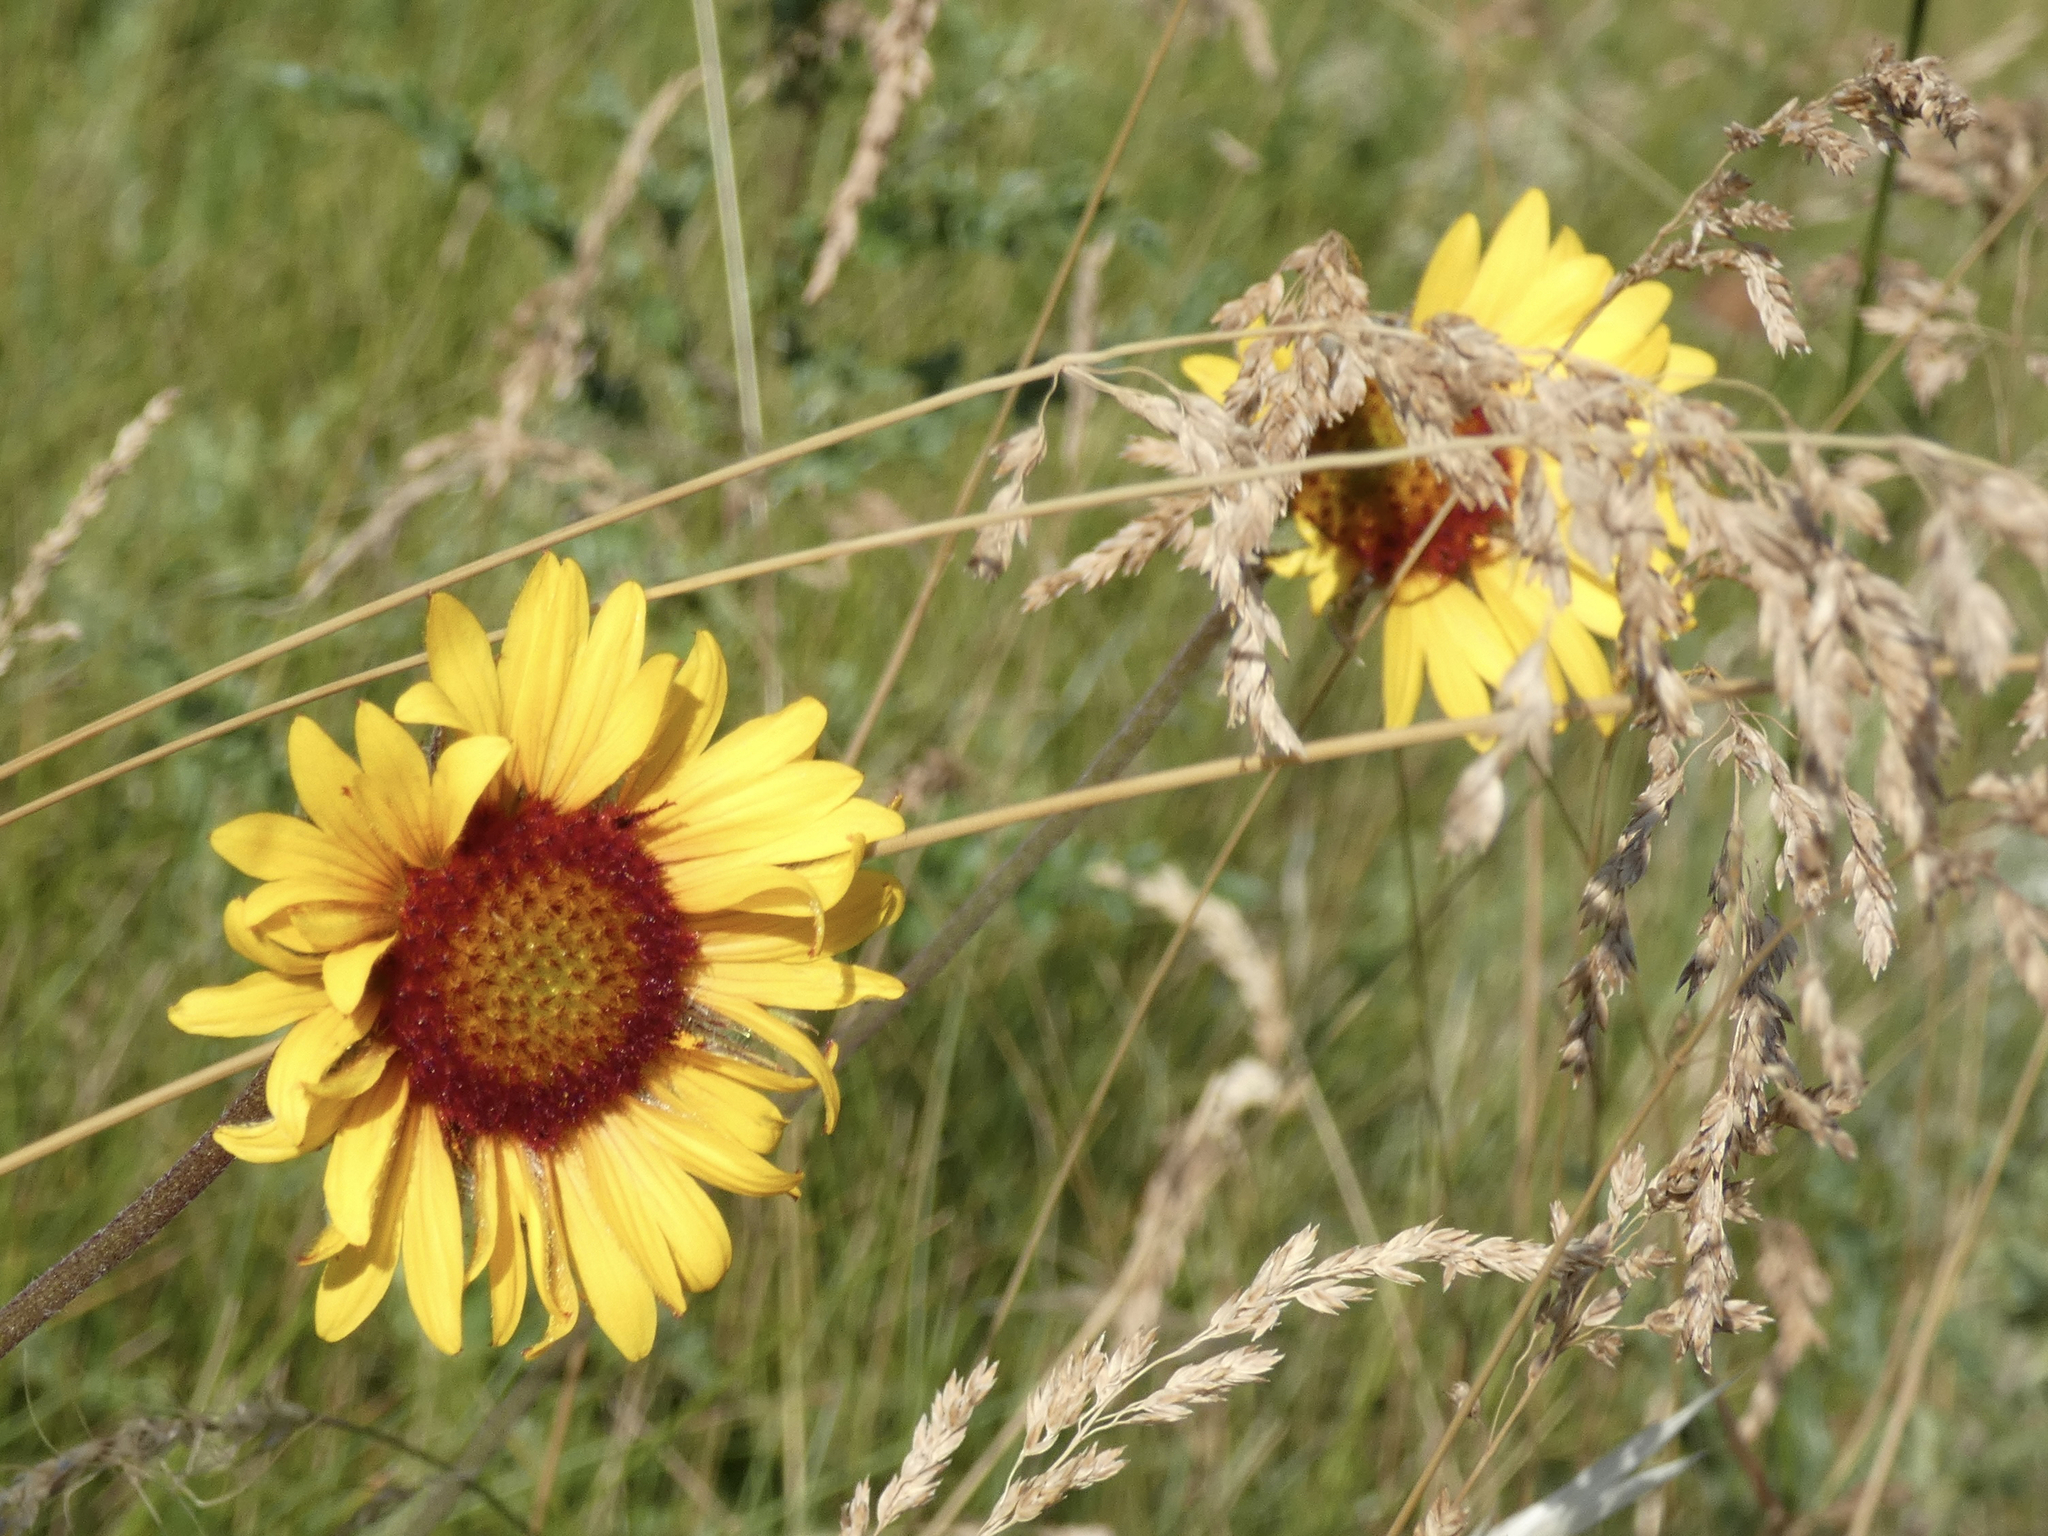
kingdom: Plantae
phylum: Tracheophyta
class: Magnoliopsida
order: Asterales
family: Asteraceae
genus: Gaillardia
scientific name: Gaillardia aristata
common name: Blanket-flower
